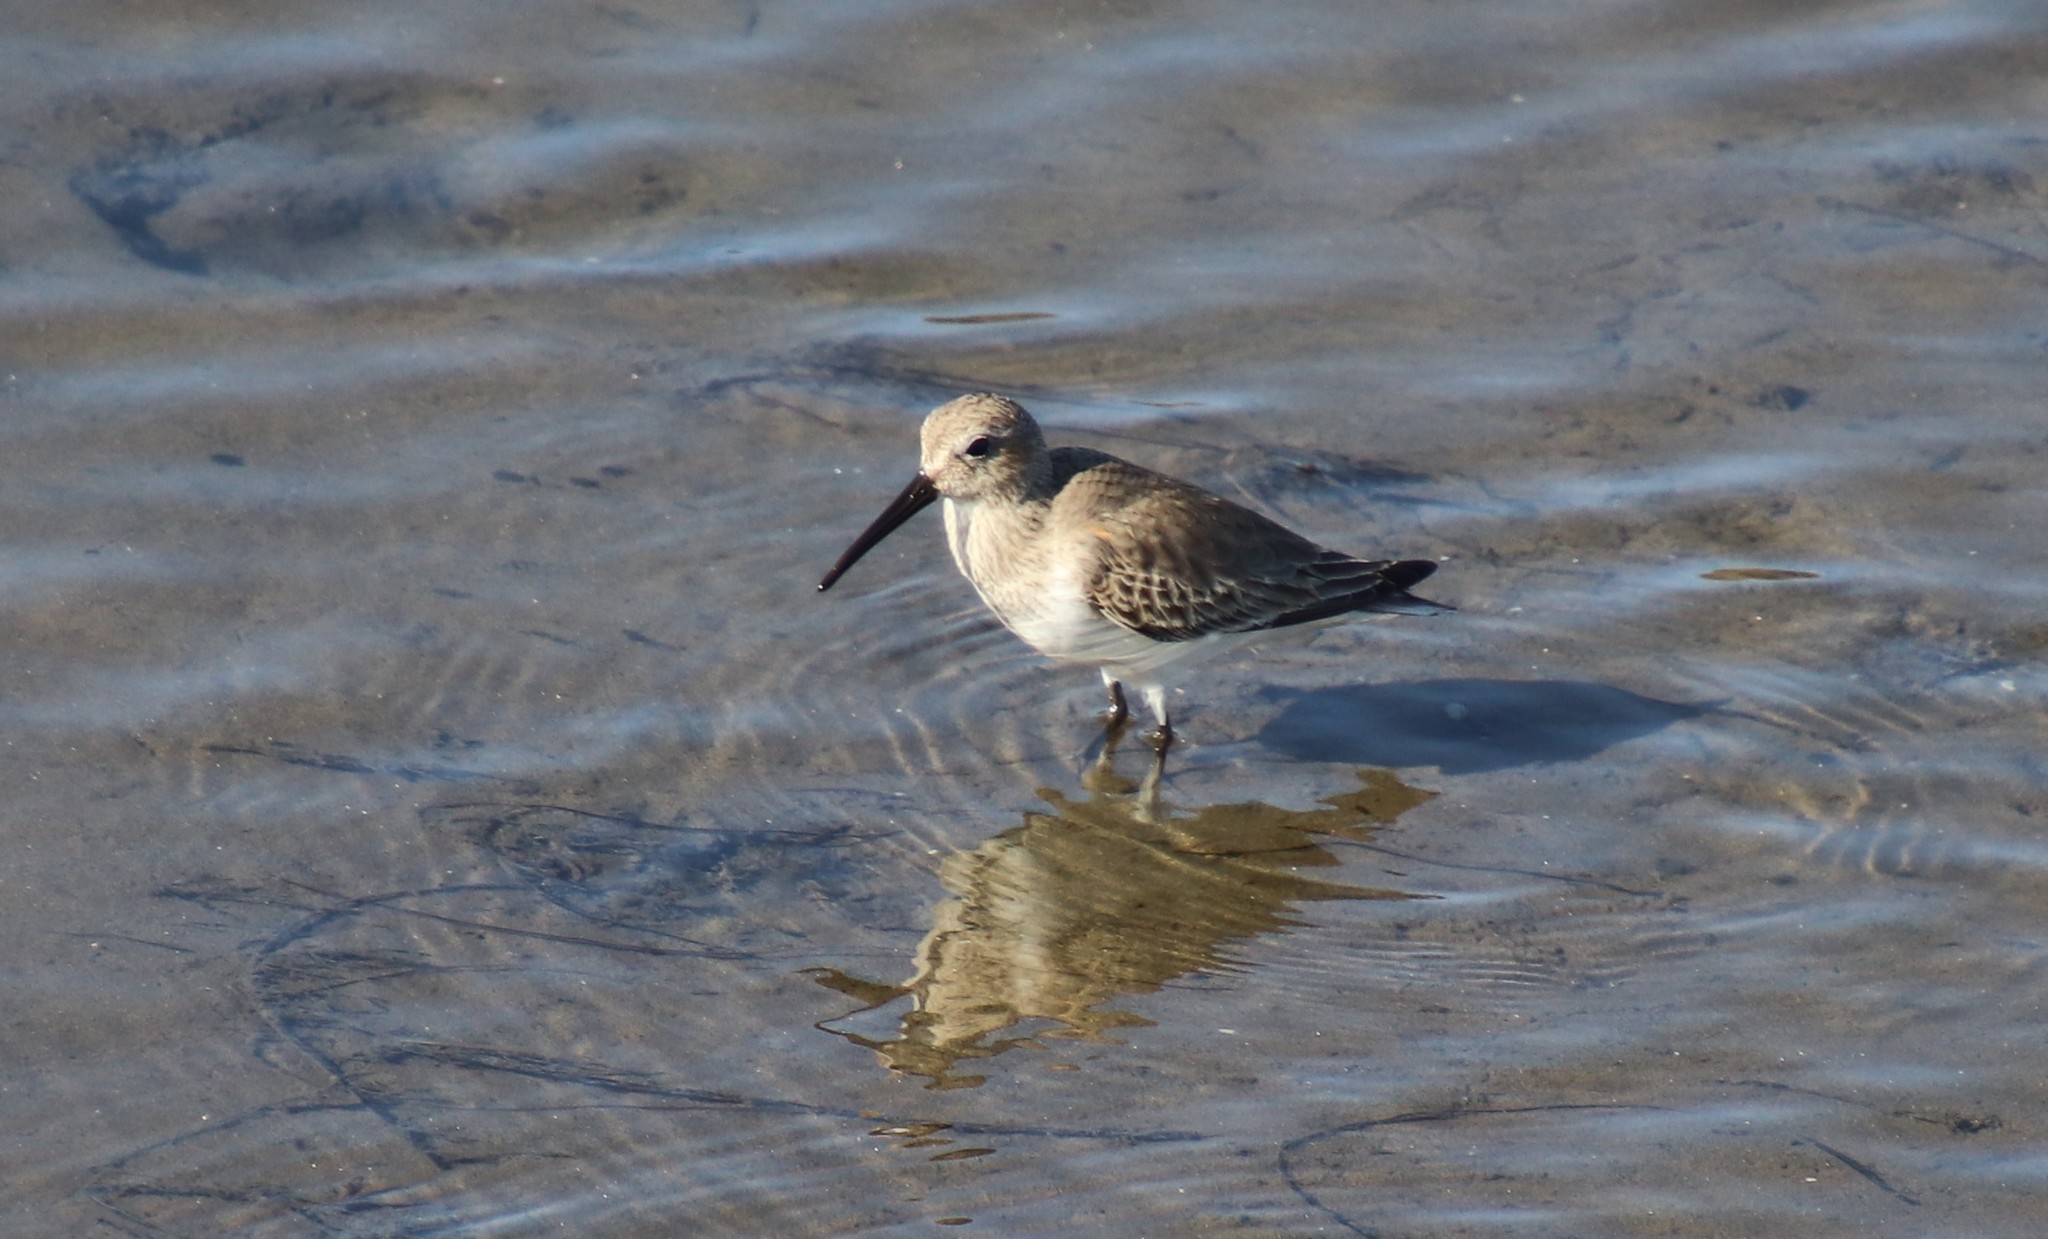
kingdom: Animalia
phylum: Chordata
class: Aves
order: Charadriiformes
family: Scolopacidae
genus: Calidris
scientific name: Calidris alpina
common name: Dunlin
